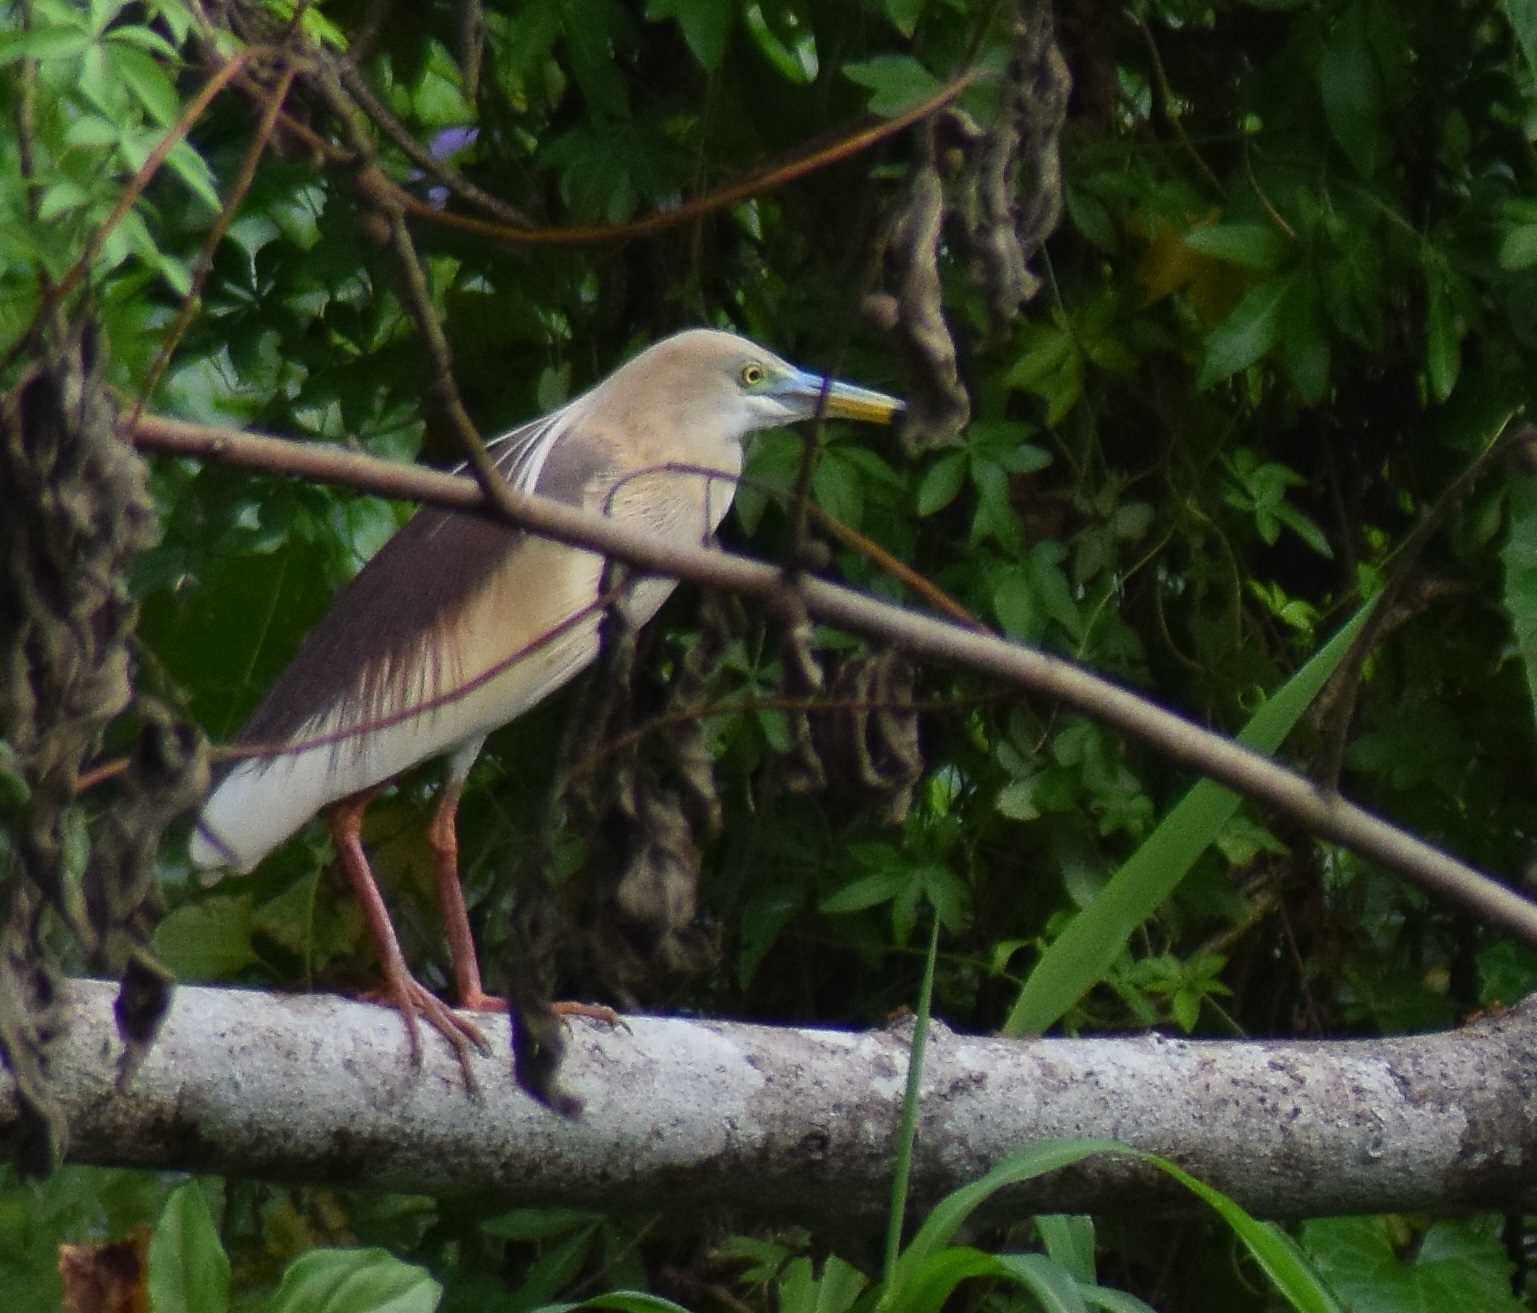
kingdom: Animalia
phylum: Chordata
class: Aves
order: Pelecaniformes
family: Ardeidae
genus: Ardeola
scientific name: Ardeola grayii
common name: Indian pond heron
